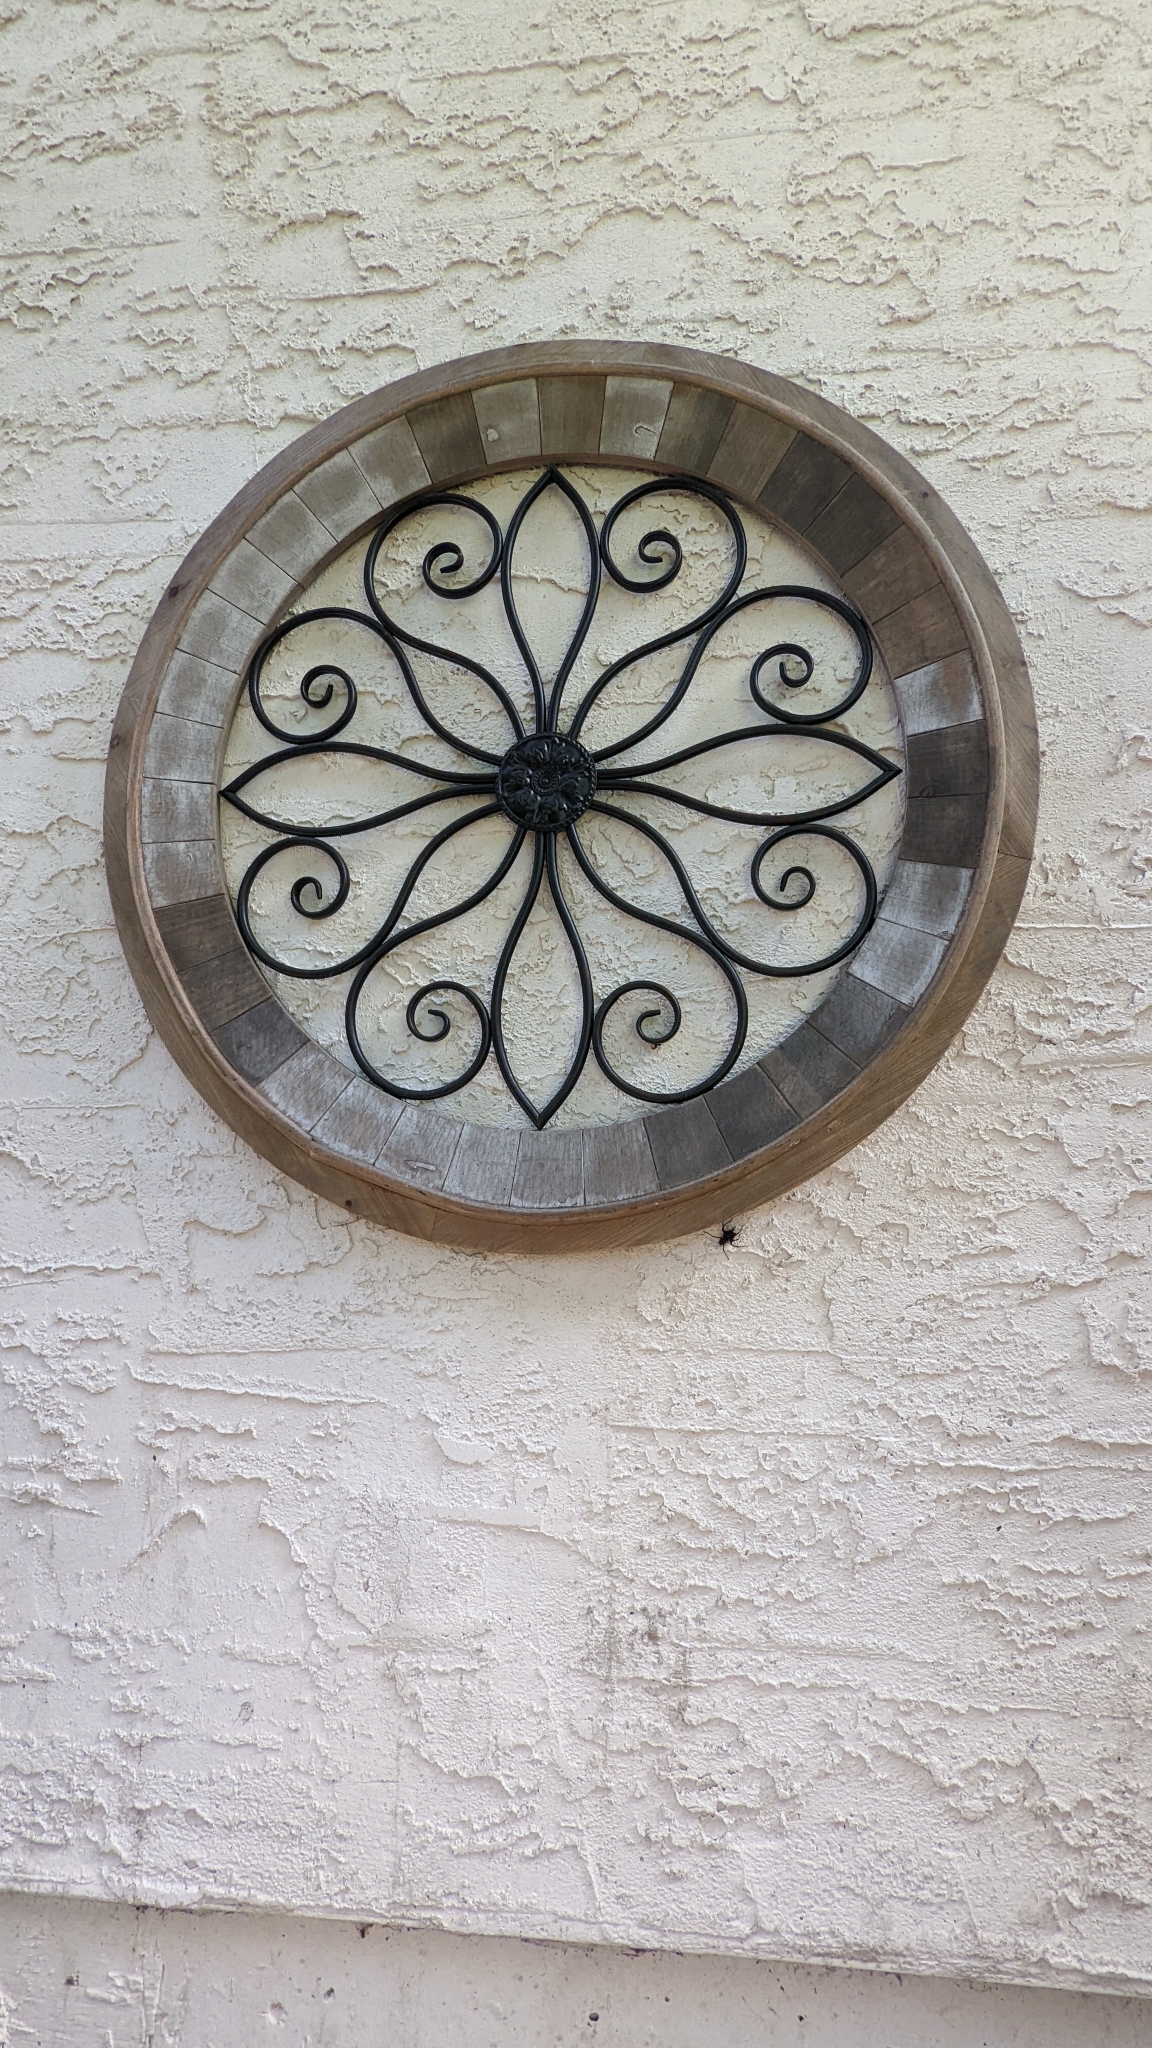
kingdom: Animalia
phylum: Arthropoda
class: Arachnida
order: Araneae
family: Agelenidae
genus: Eratigena
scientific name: Eratigena duellica
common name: Giant house spider
